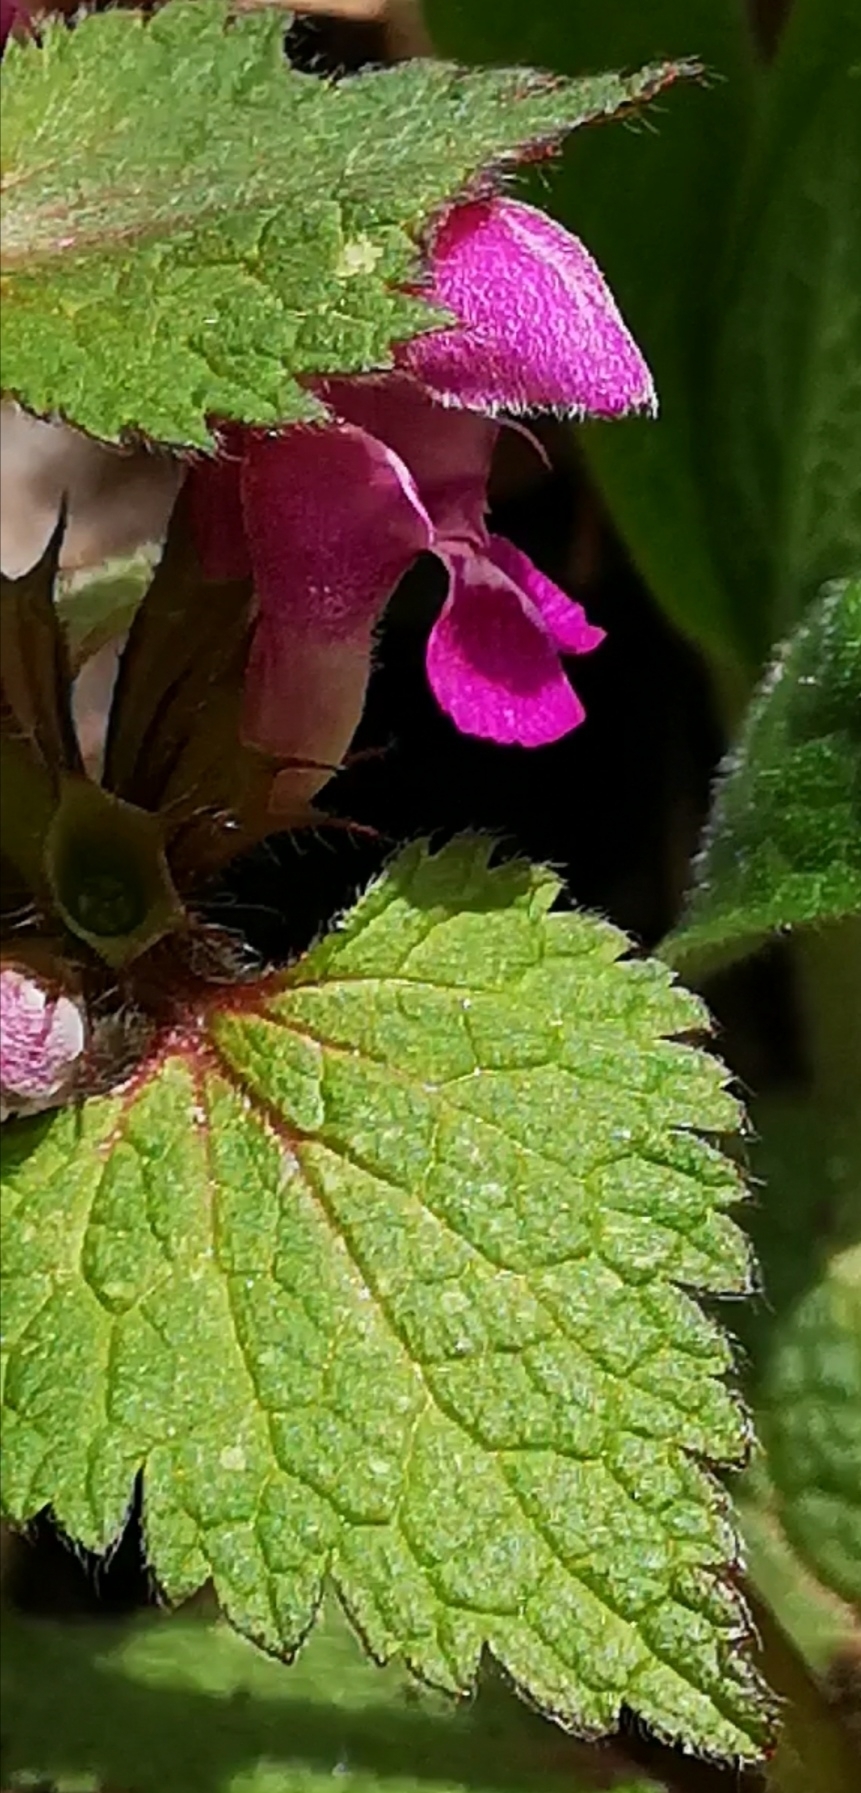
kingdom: Plantae
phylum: Tracheophyta
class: Magnoliopsida
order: Lamiales
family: Lamiaceae
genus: Lamium
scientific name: Lamium maculatum
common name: Spotted dead-nettle
